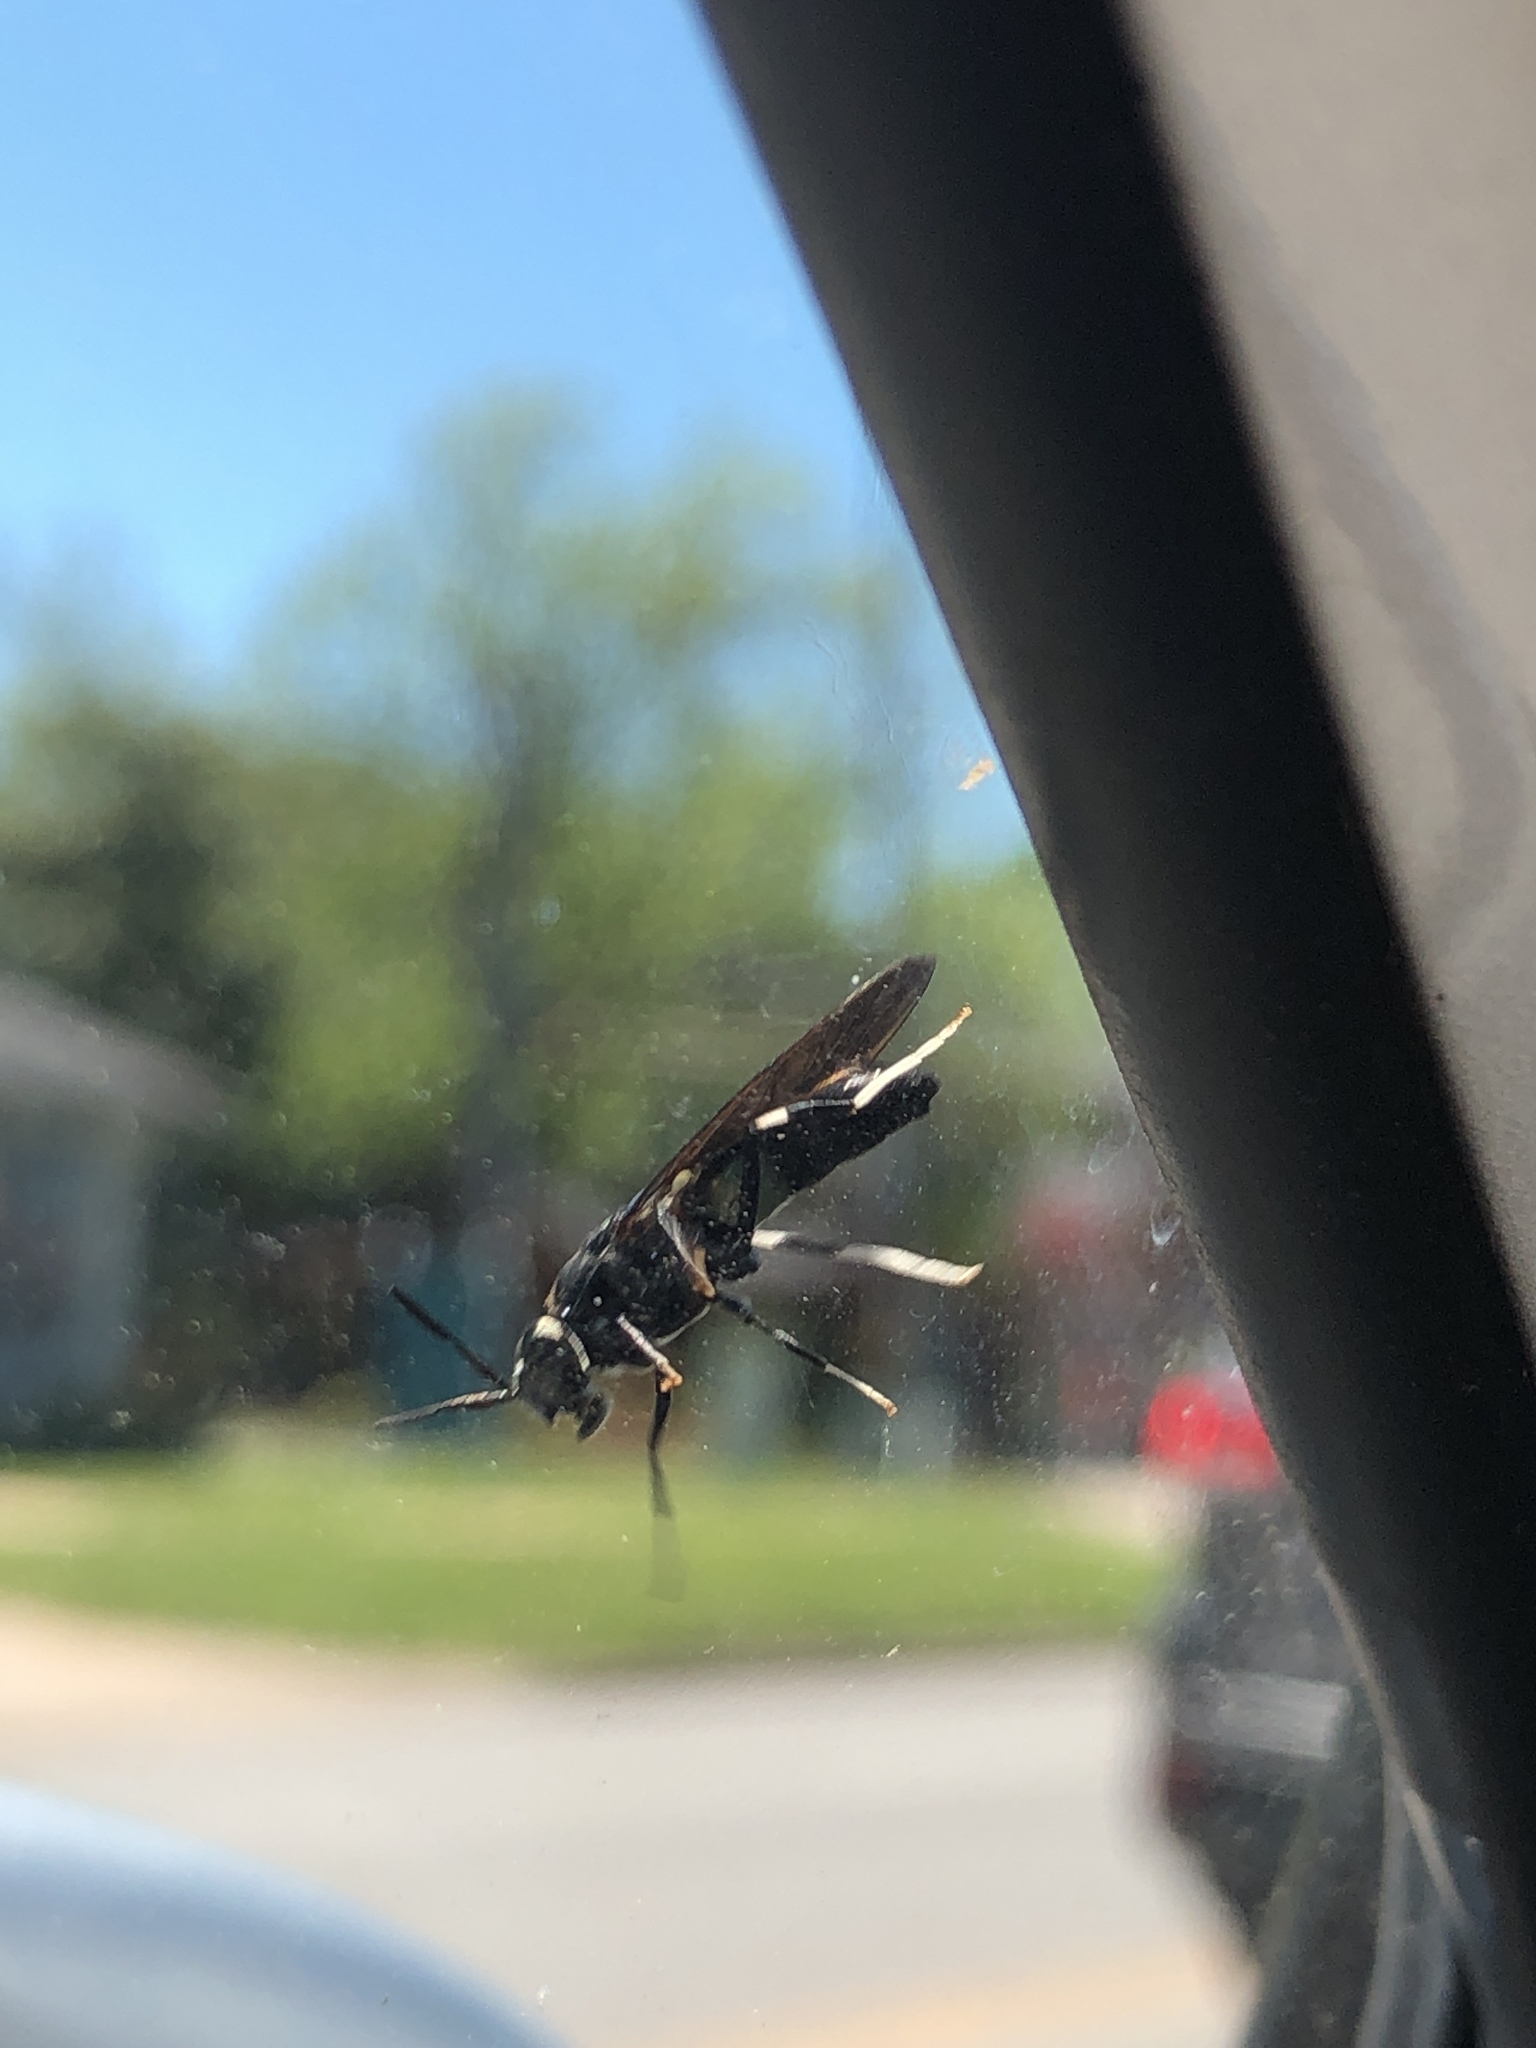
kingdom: Animalia
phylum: Arthropoda
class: Insecta
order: Diptera
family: Stratiomyidae
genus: Hermetia
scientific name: Hermetia illucens
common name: Black soldier fly
